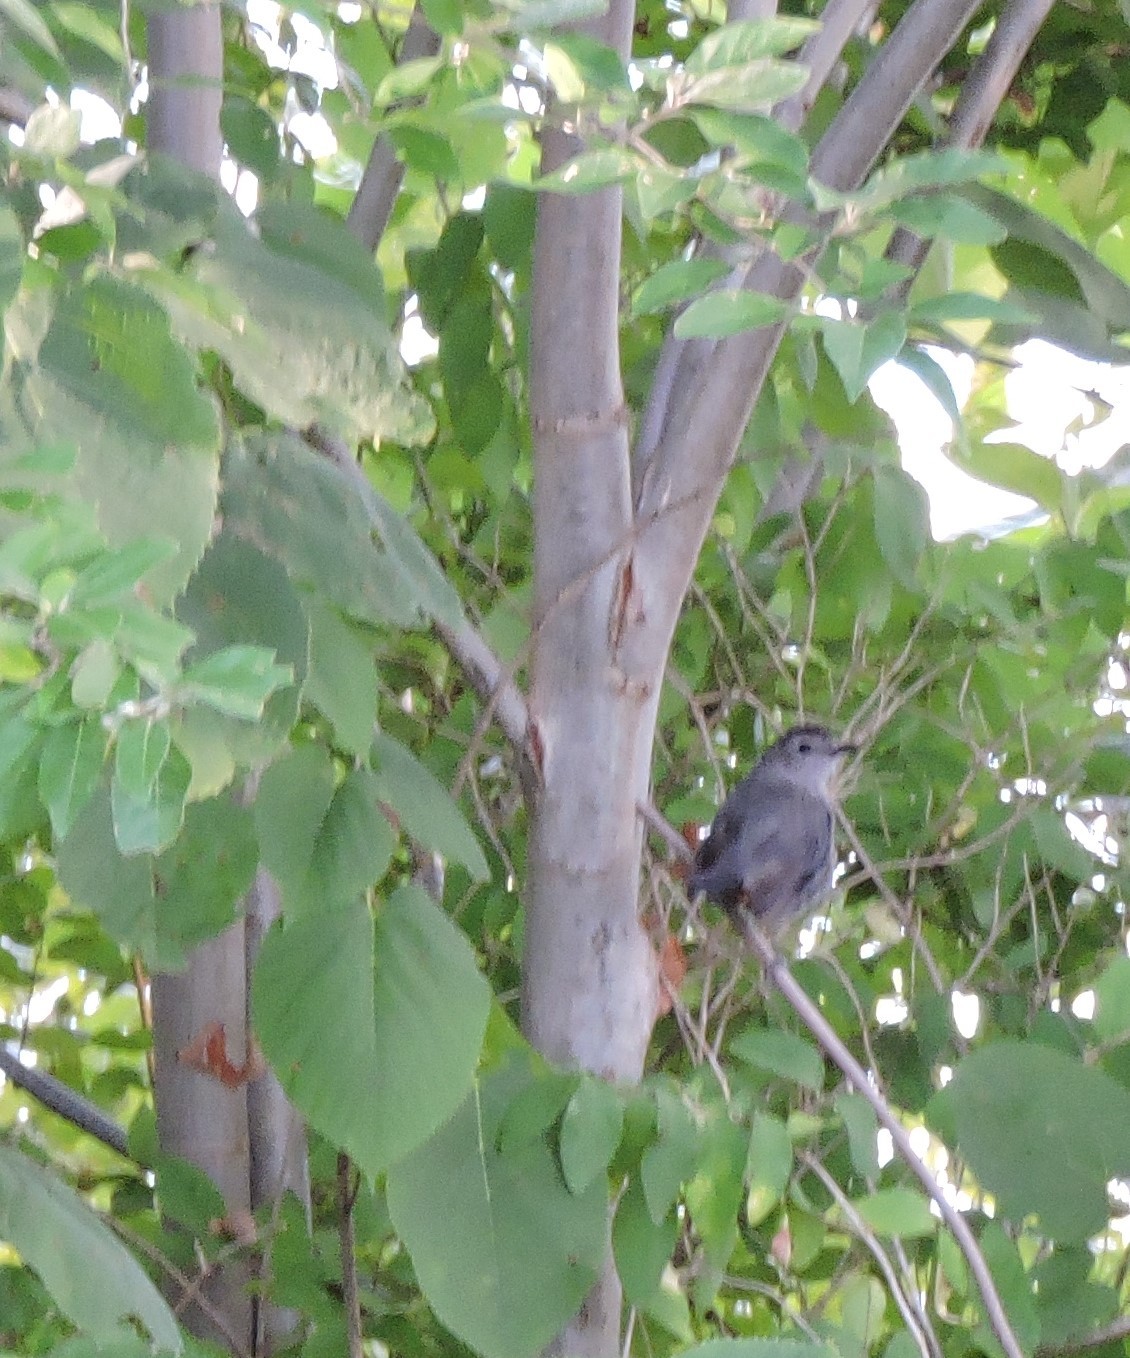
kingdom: Animalia
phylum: Chordata
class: Aves
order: Passeriformes
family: Mimidae
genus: Dumetella
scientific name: Dumetella carolinensis
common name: Gray catbird
